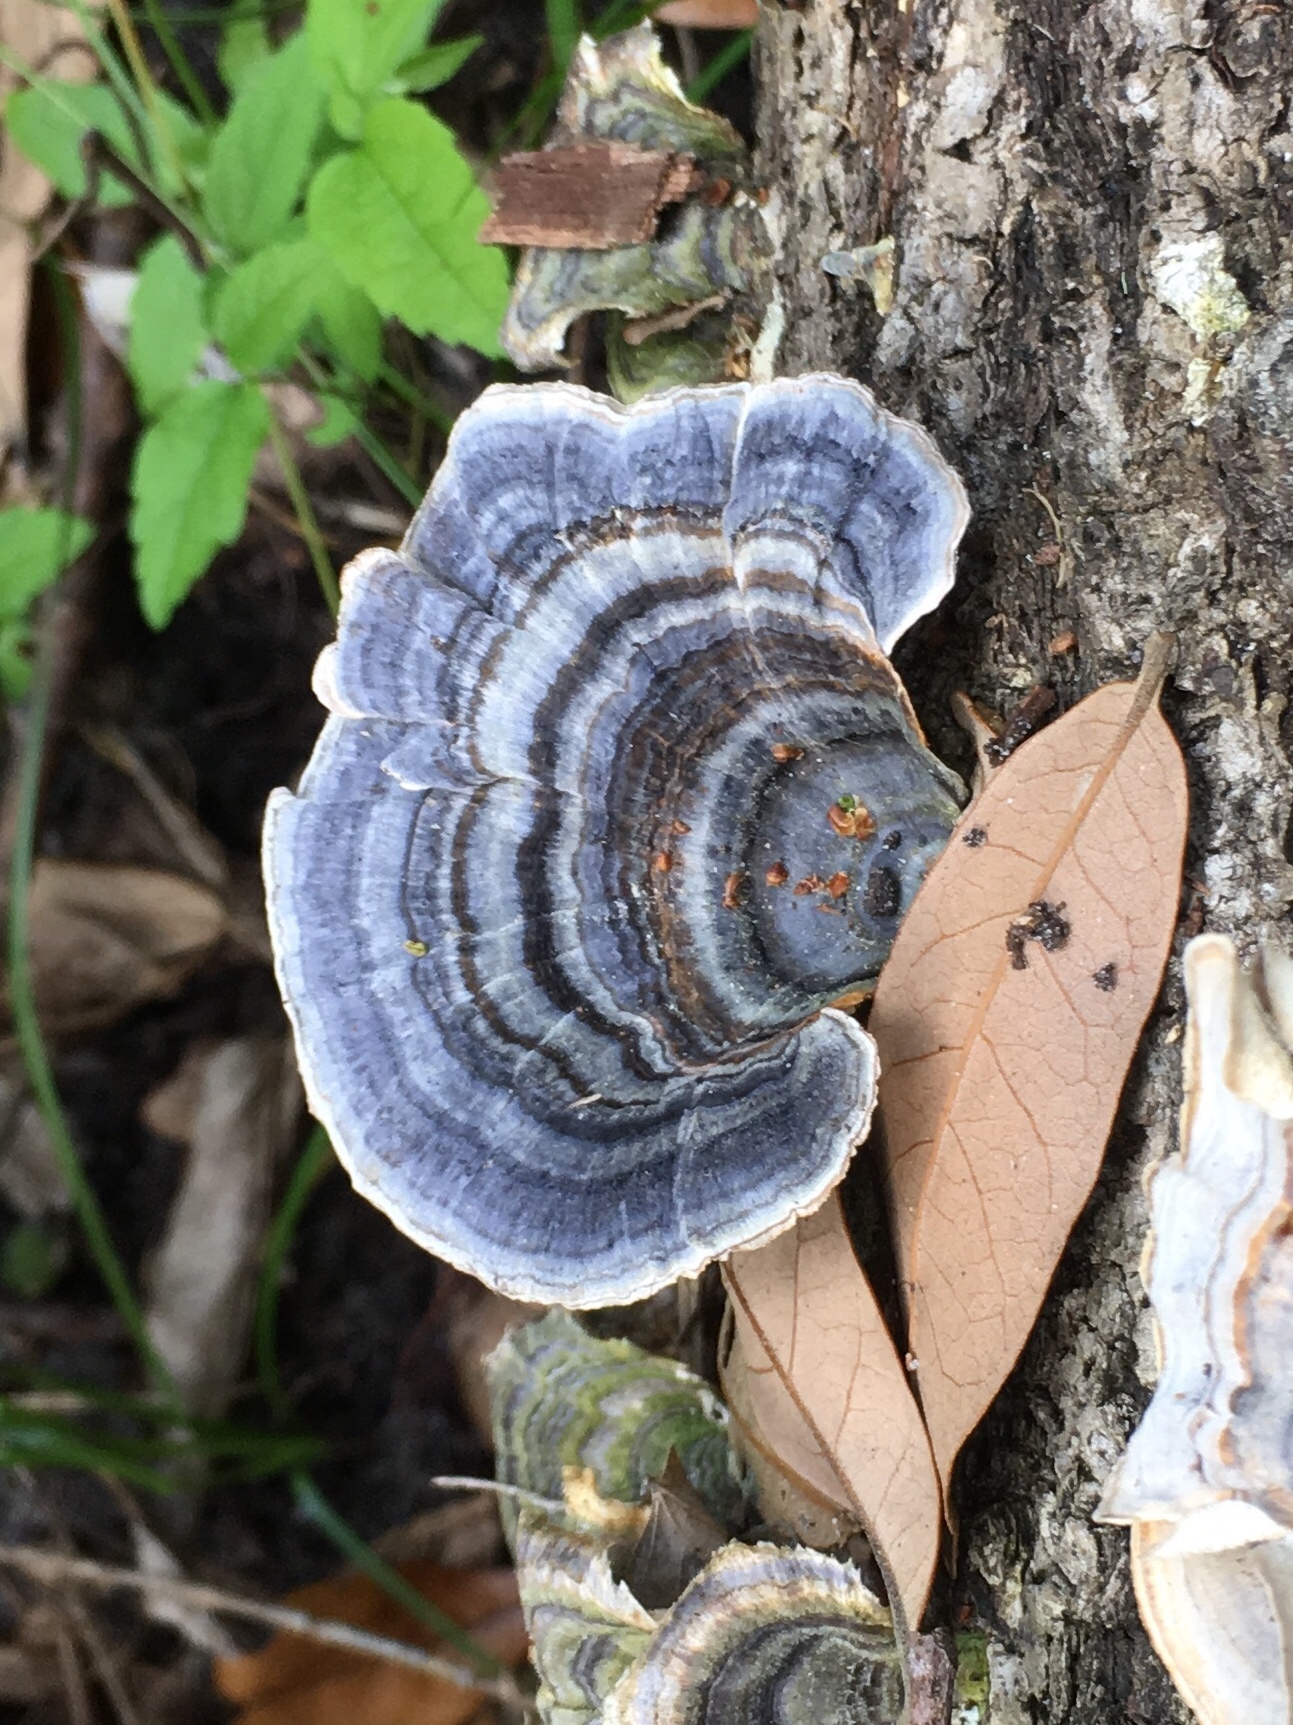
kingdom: Fungi
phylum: Basidiomycota
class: Agaricomycetes
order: Polyporales
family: Polyporaceae
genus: Trametes
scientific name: Trametes versicolor
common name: Turkeytail
